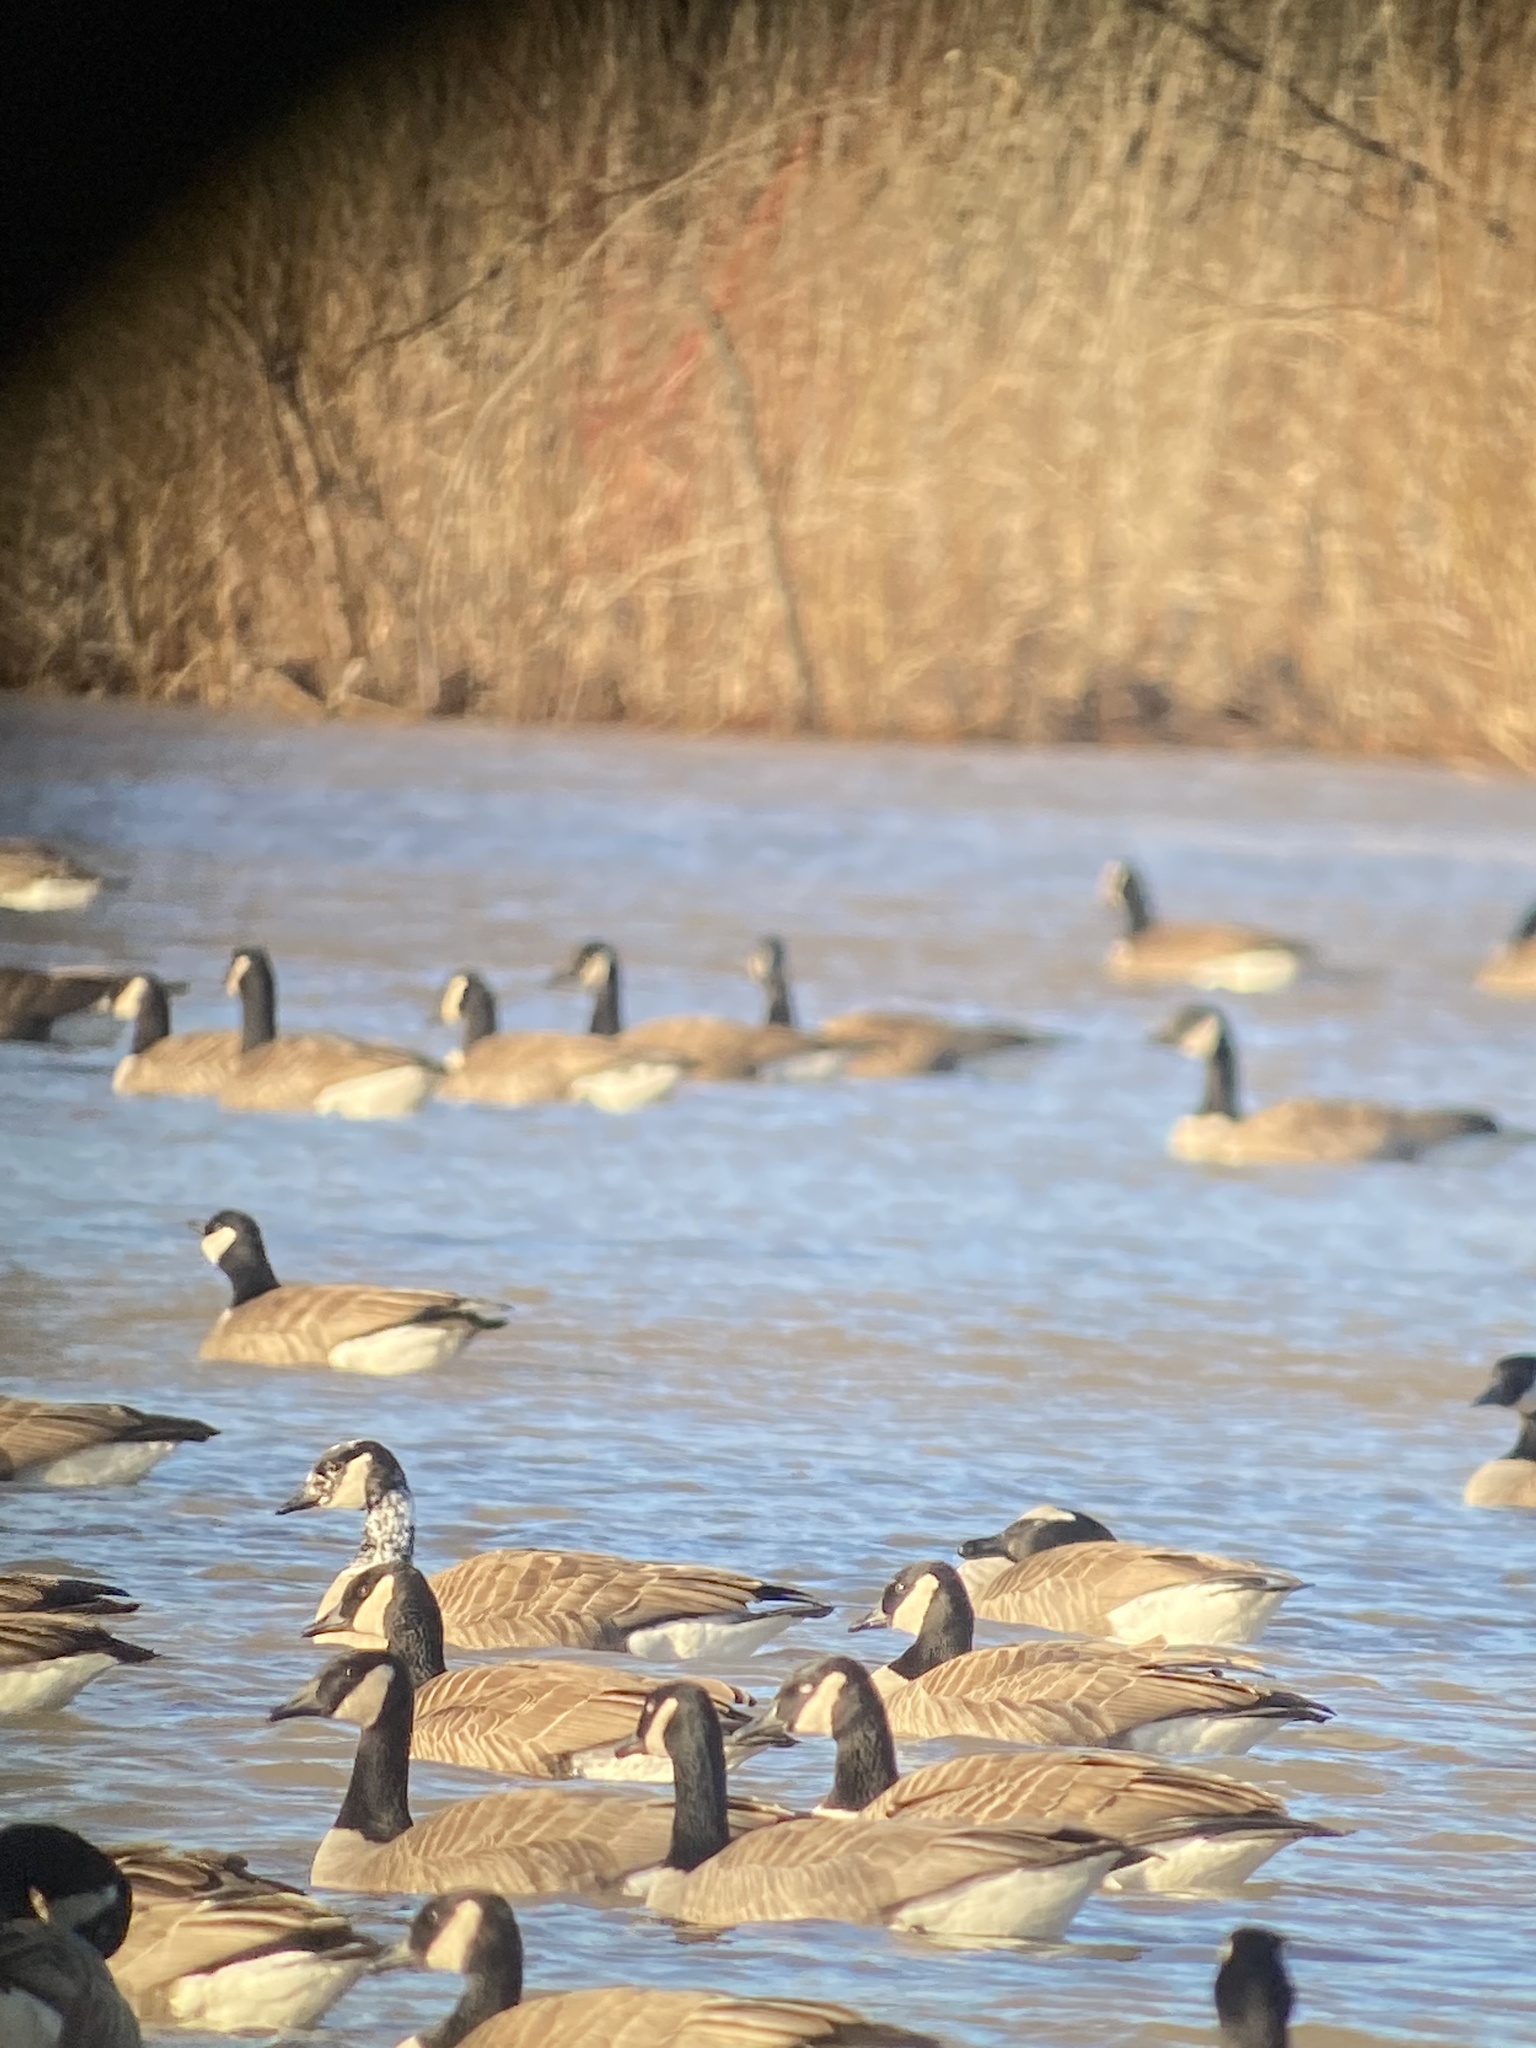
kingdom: Animalia
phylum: Chordata
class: Aves
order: Anseriformes
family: Anatidae
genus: Branta
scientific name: Branta canadensis
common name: Canada goose
